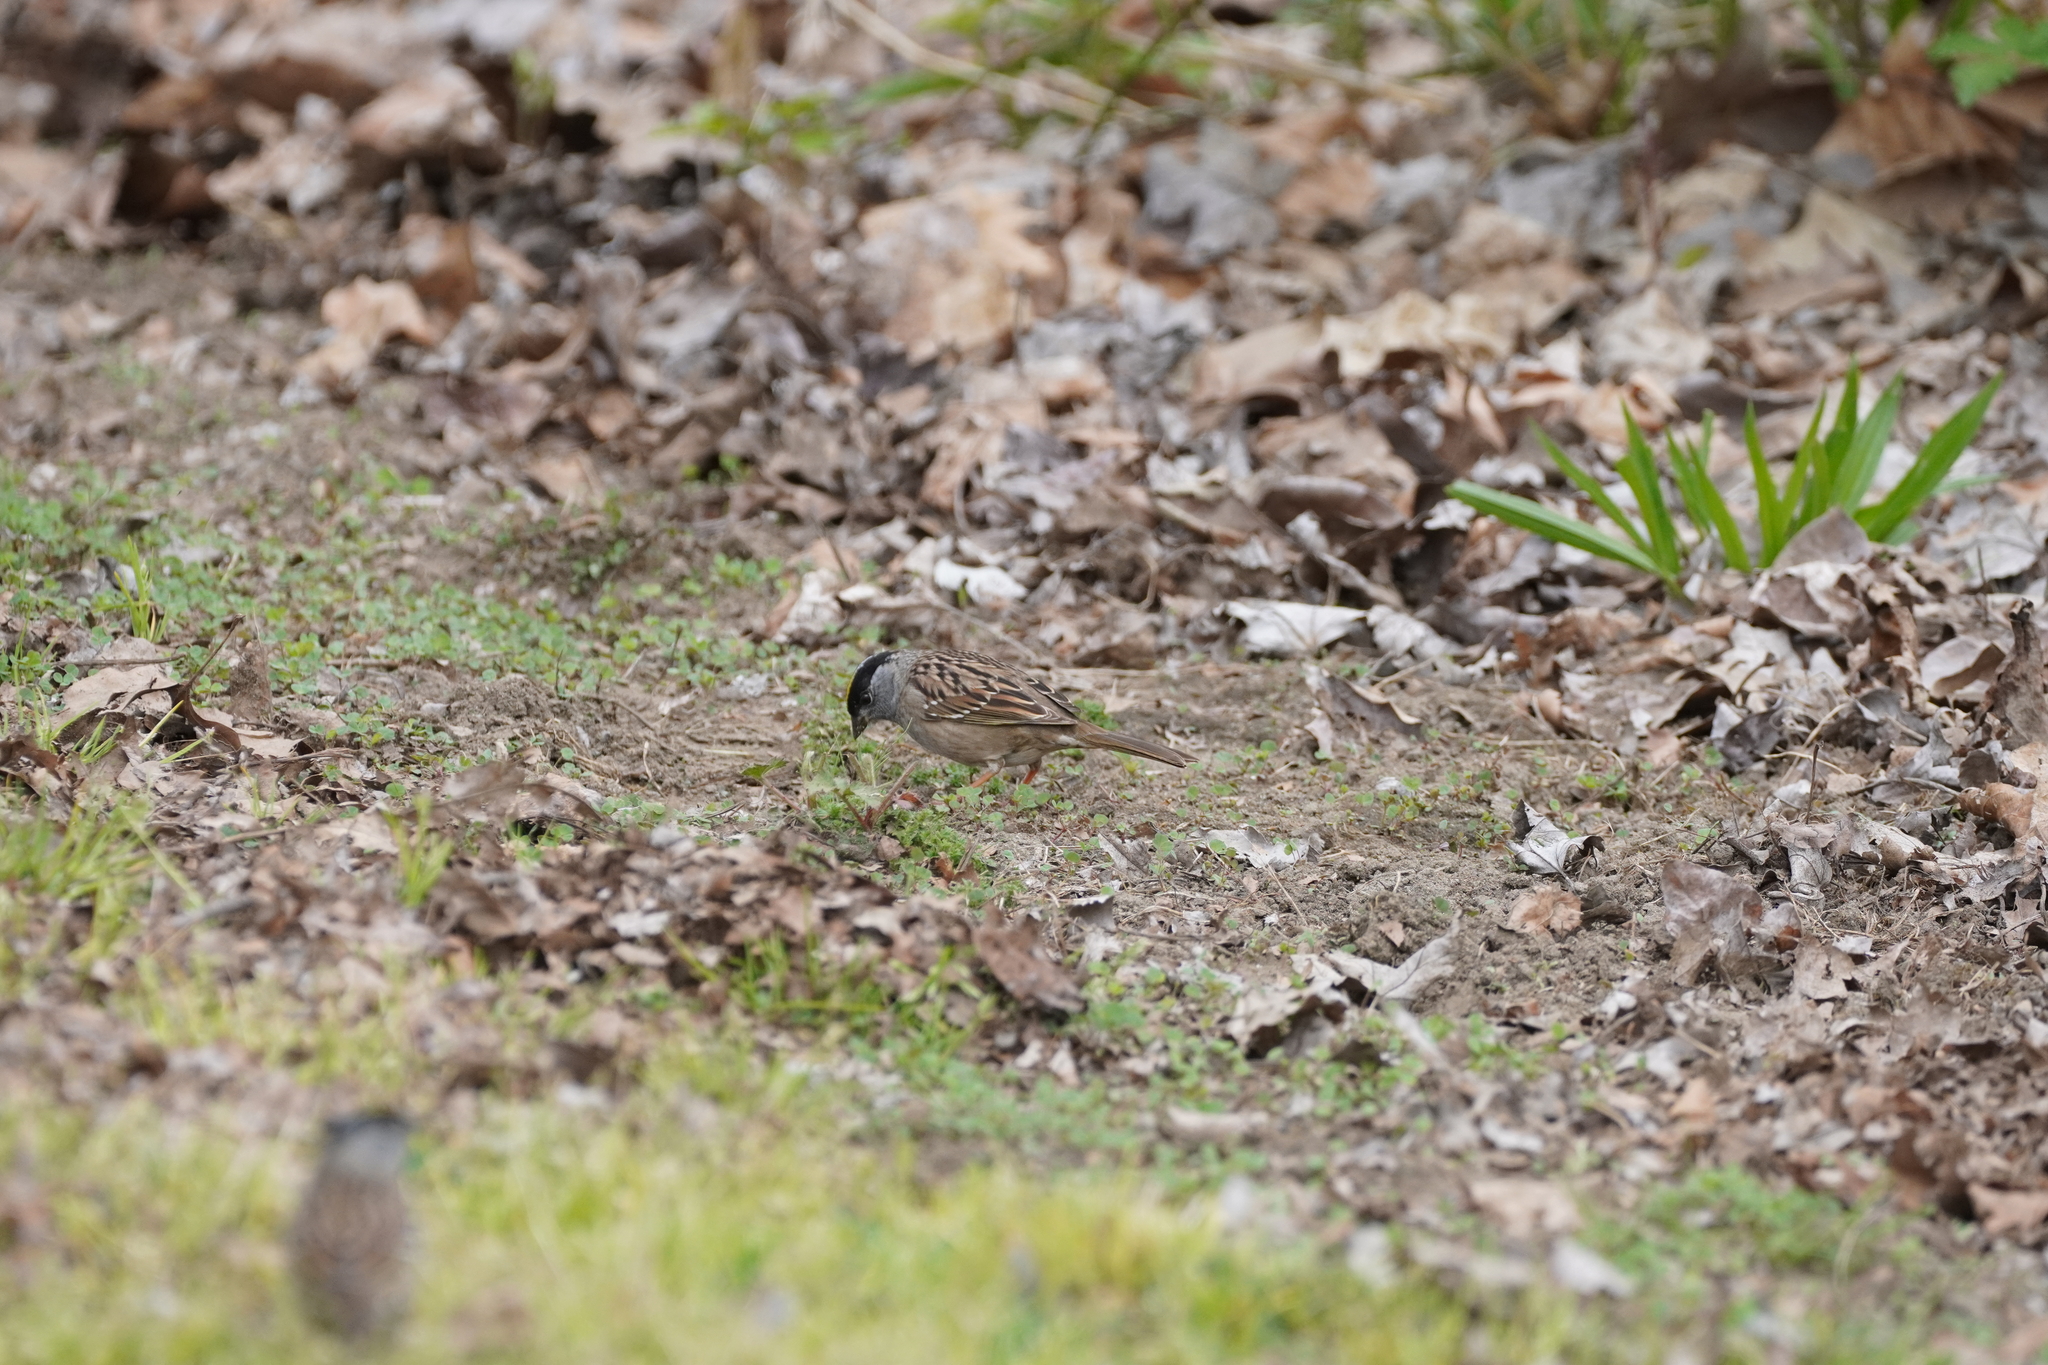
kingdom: Animalia
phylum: Chordata
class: Aves
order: Passeriformes
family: Passerellidae
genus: Zonotrichia
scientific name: Zonotrichia atricapilla
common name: Golden-crowned sparrow
